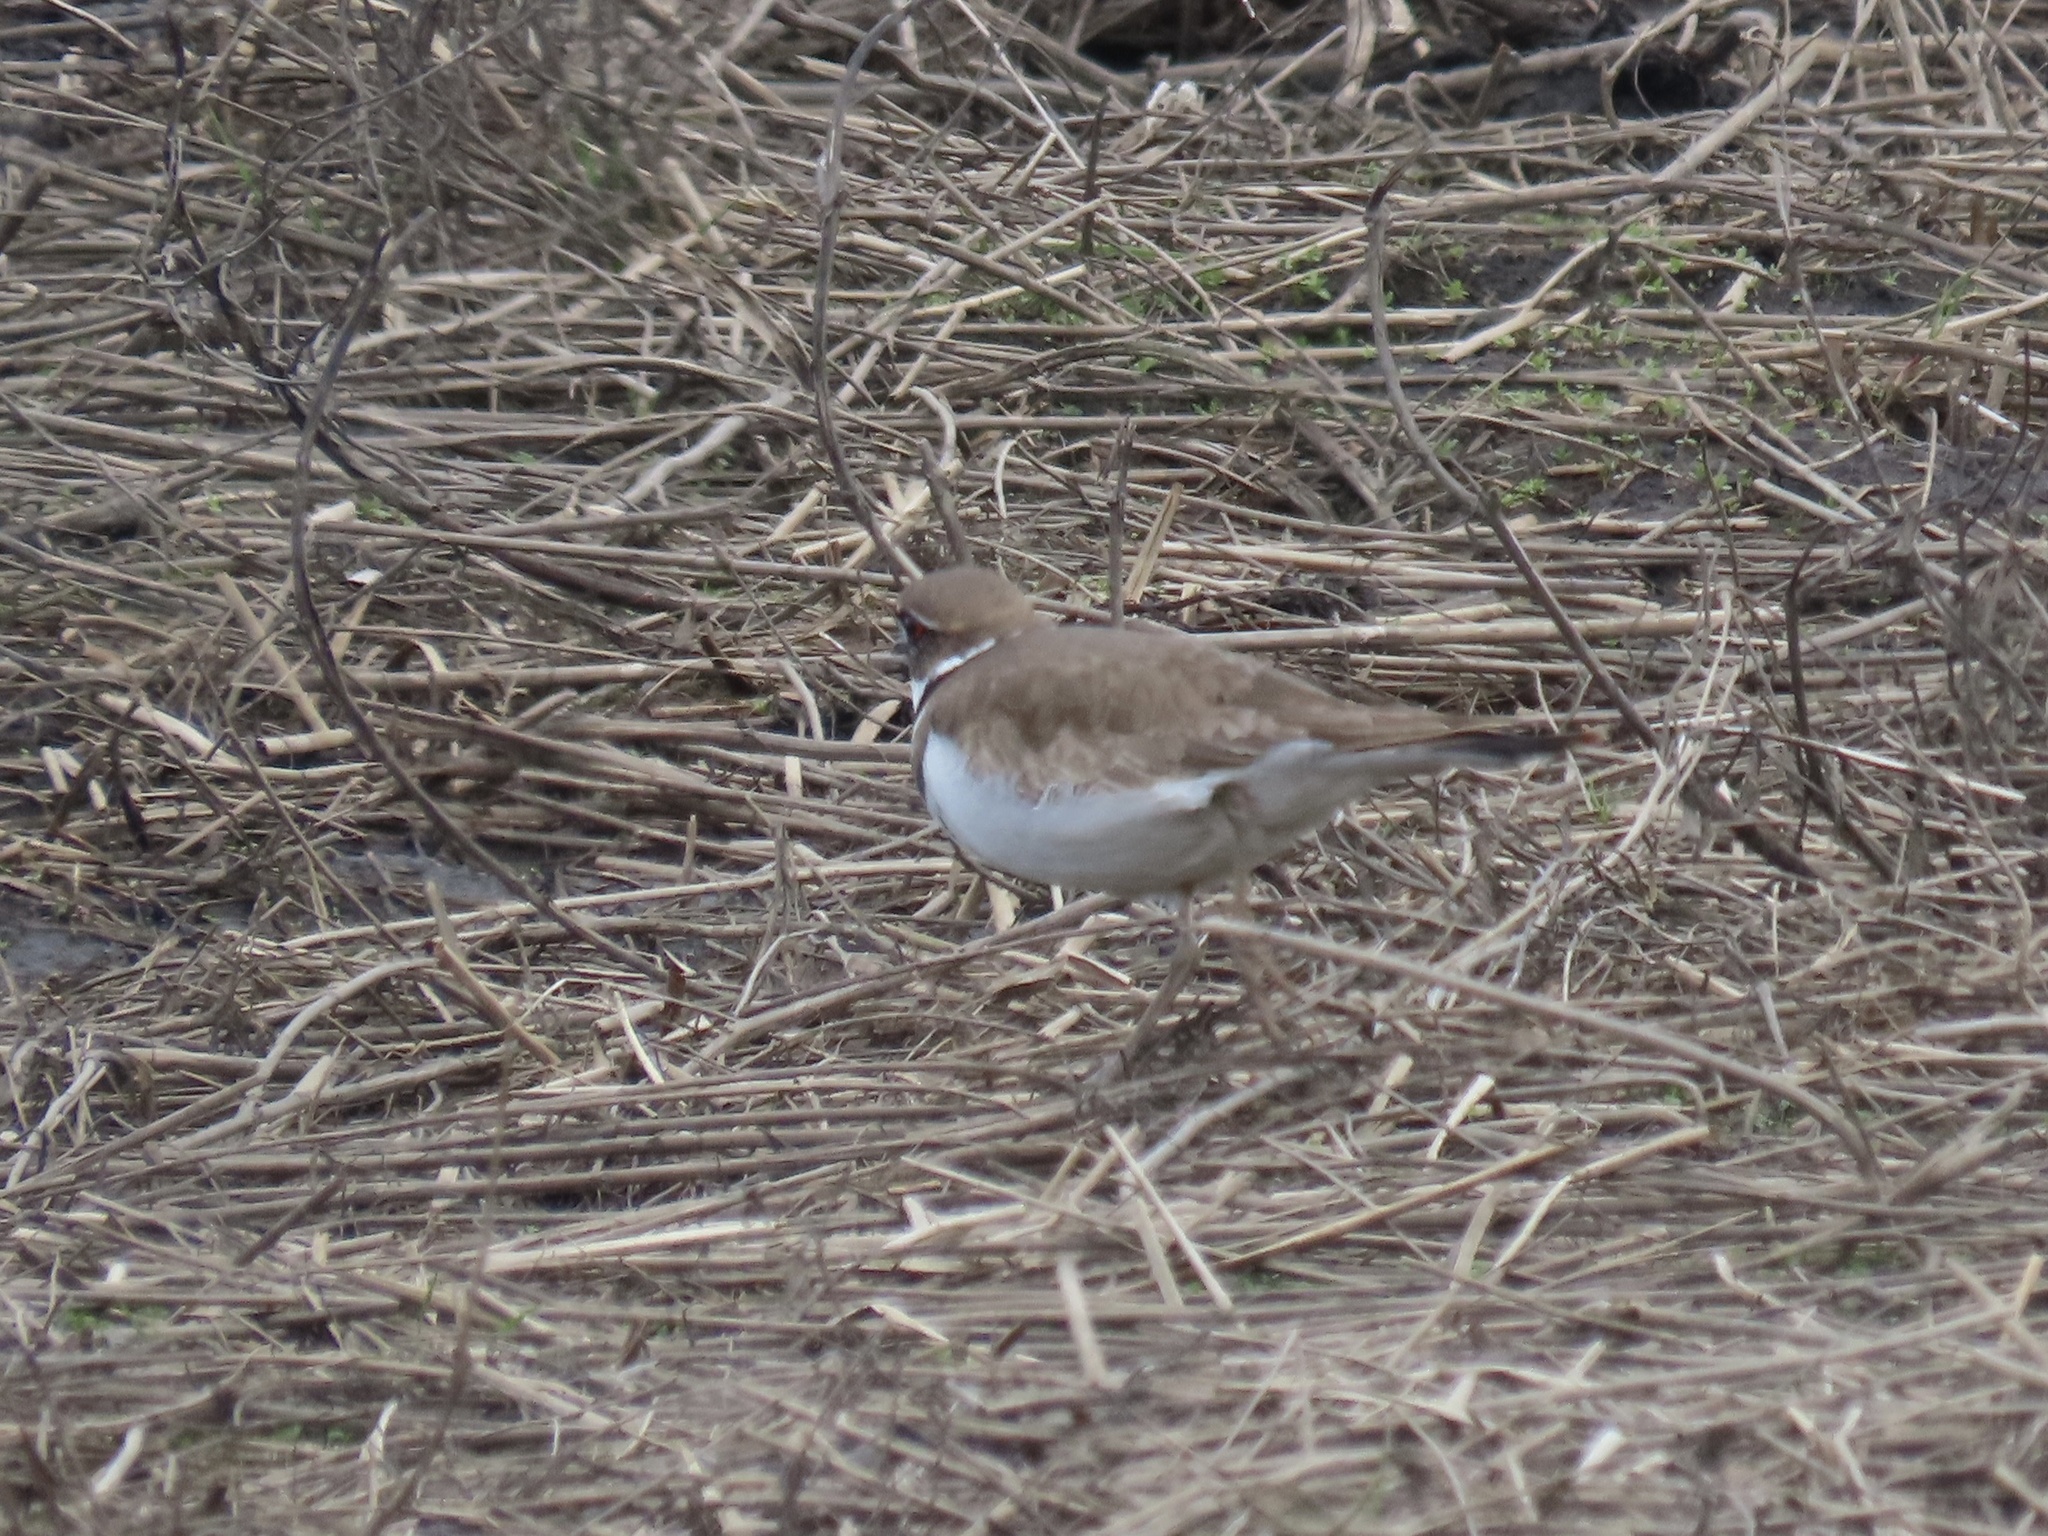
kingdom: Animalia
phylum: Chordata
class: Aves
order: Charadriiformes
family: Charadriidae
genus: Charadrius
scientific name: Charadrius vociferus
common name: Killdeer
